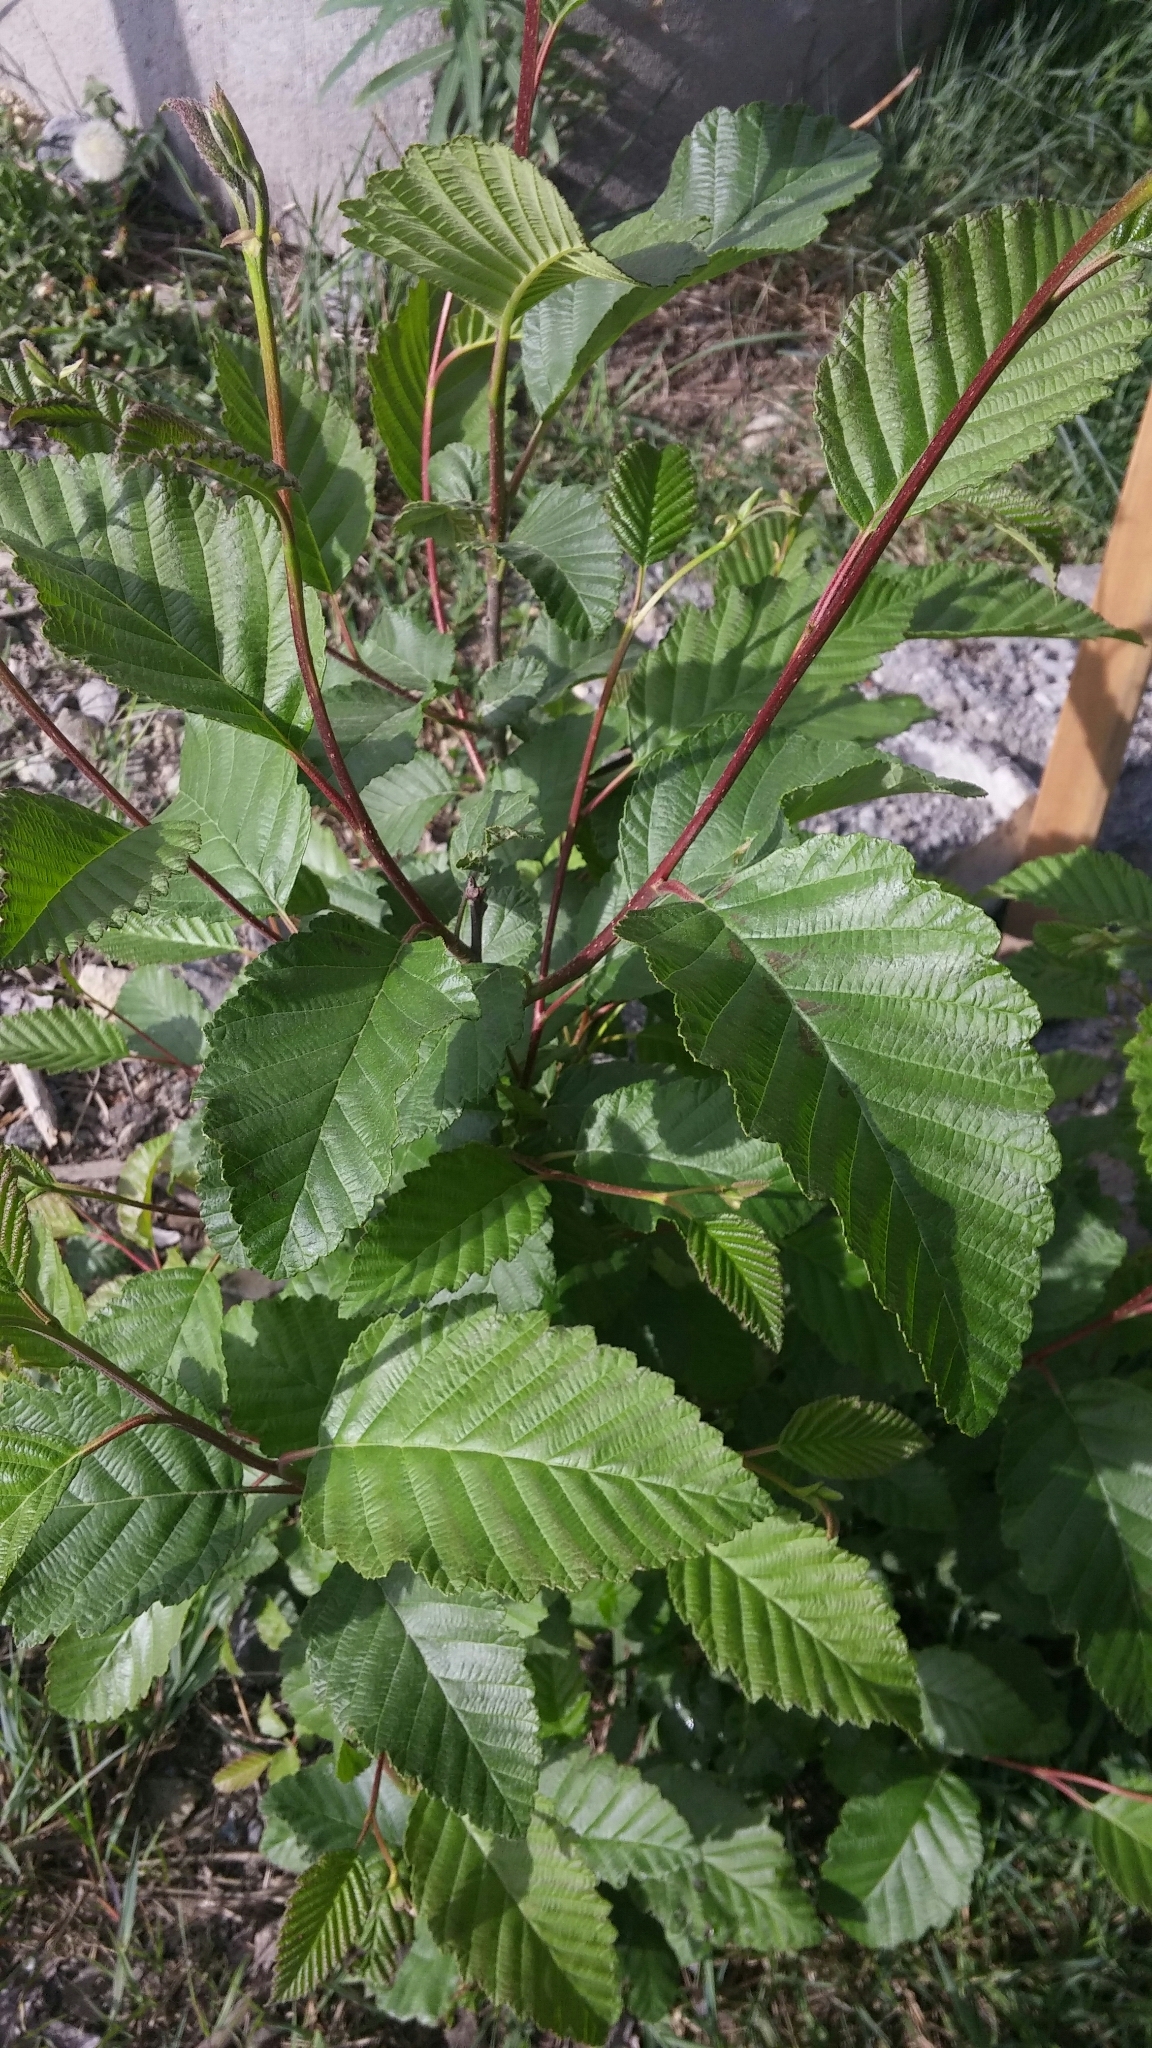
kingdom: Plantae
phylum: Tracheophyta
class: Magnoliopsida
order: Fagales
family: Betulaceae
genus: Alnus
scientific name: Alnus rubra
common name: Red alder
